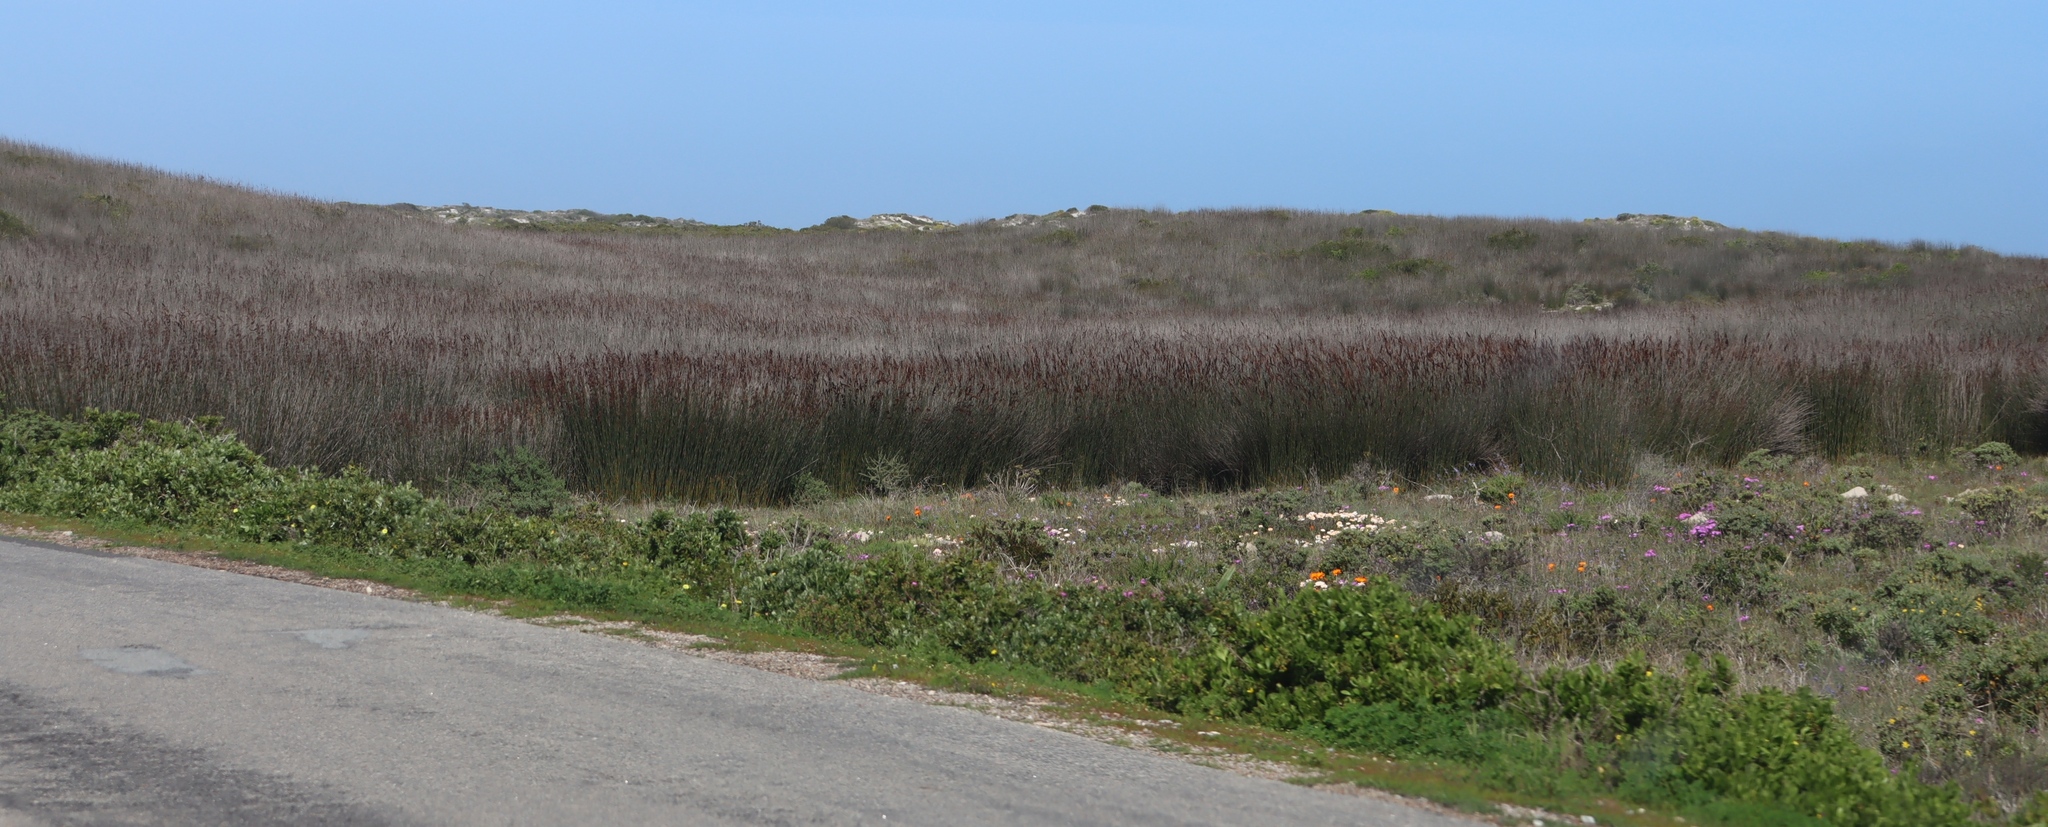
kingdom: Plantae
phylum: Tracheophyta
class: Liliopsida
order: Poales
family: Restionaceae
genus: Thamnochortus
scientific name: Thamnochortus spicigerus
